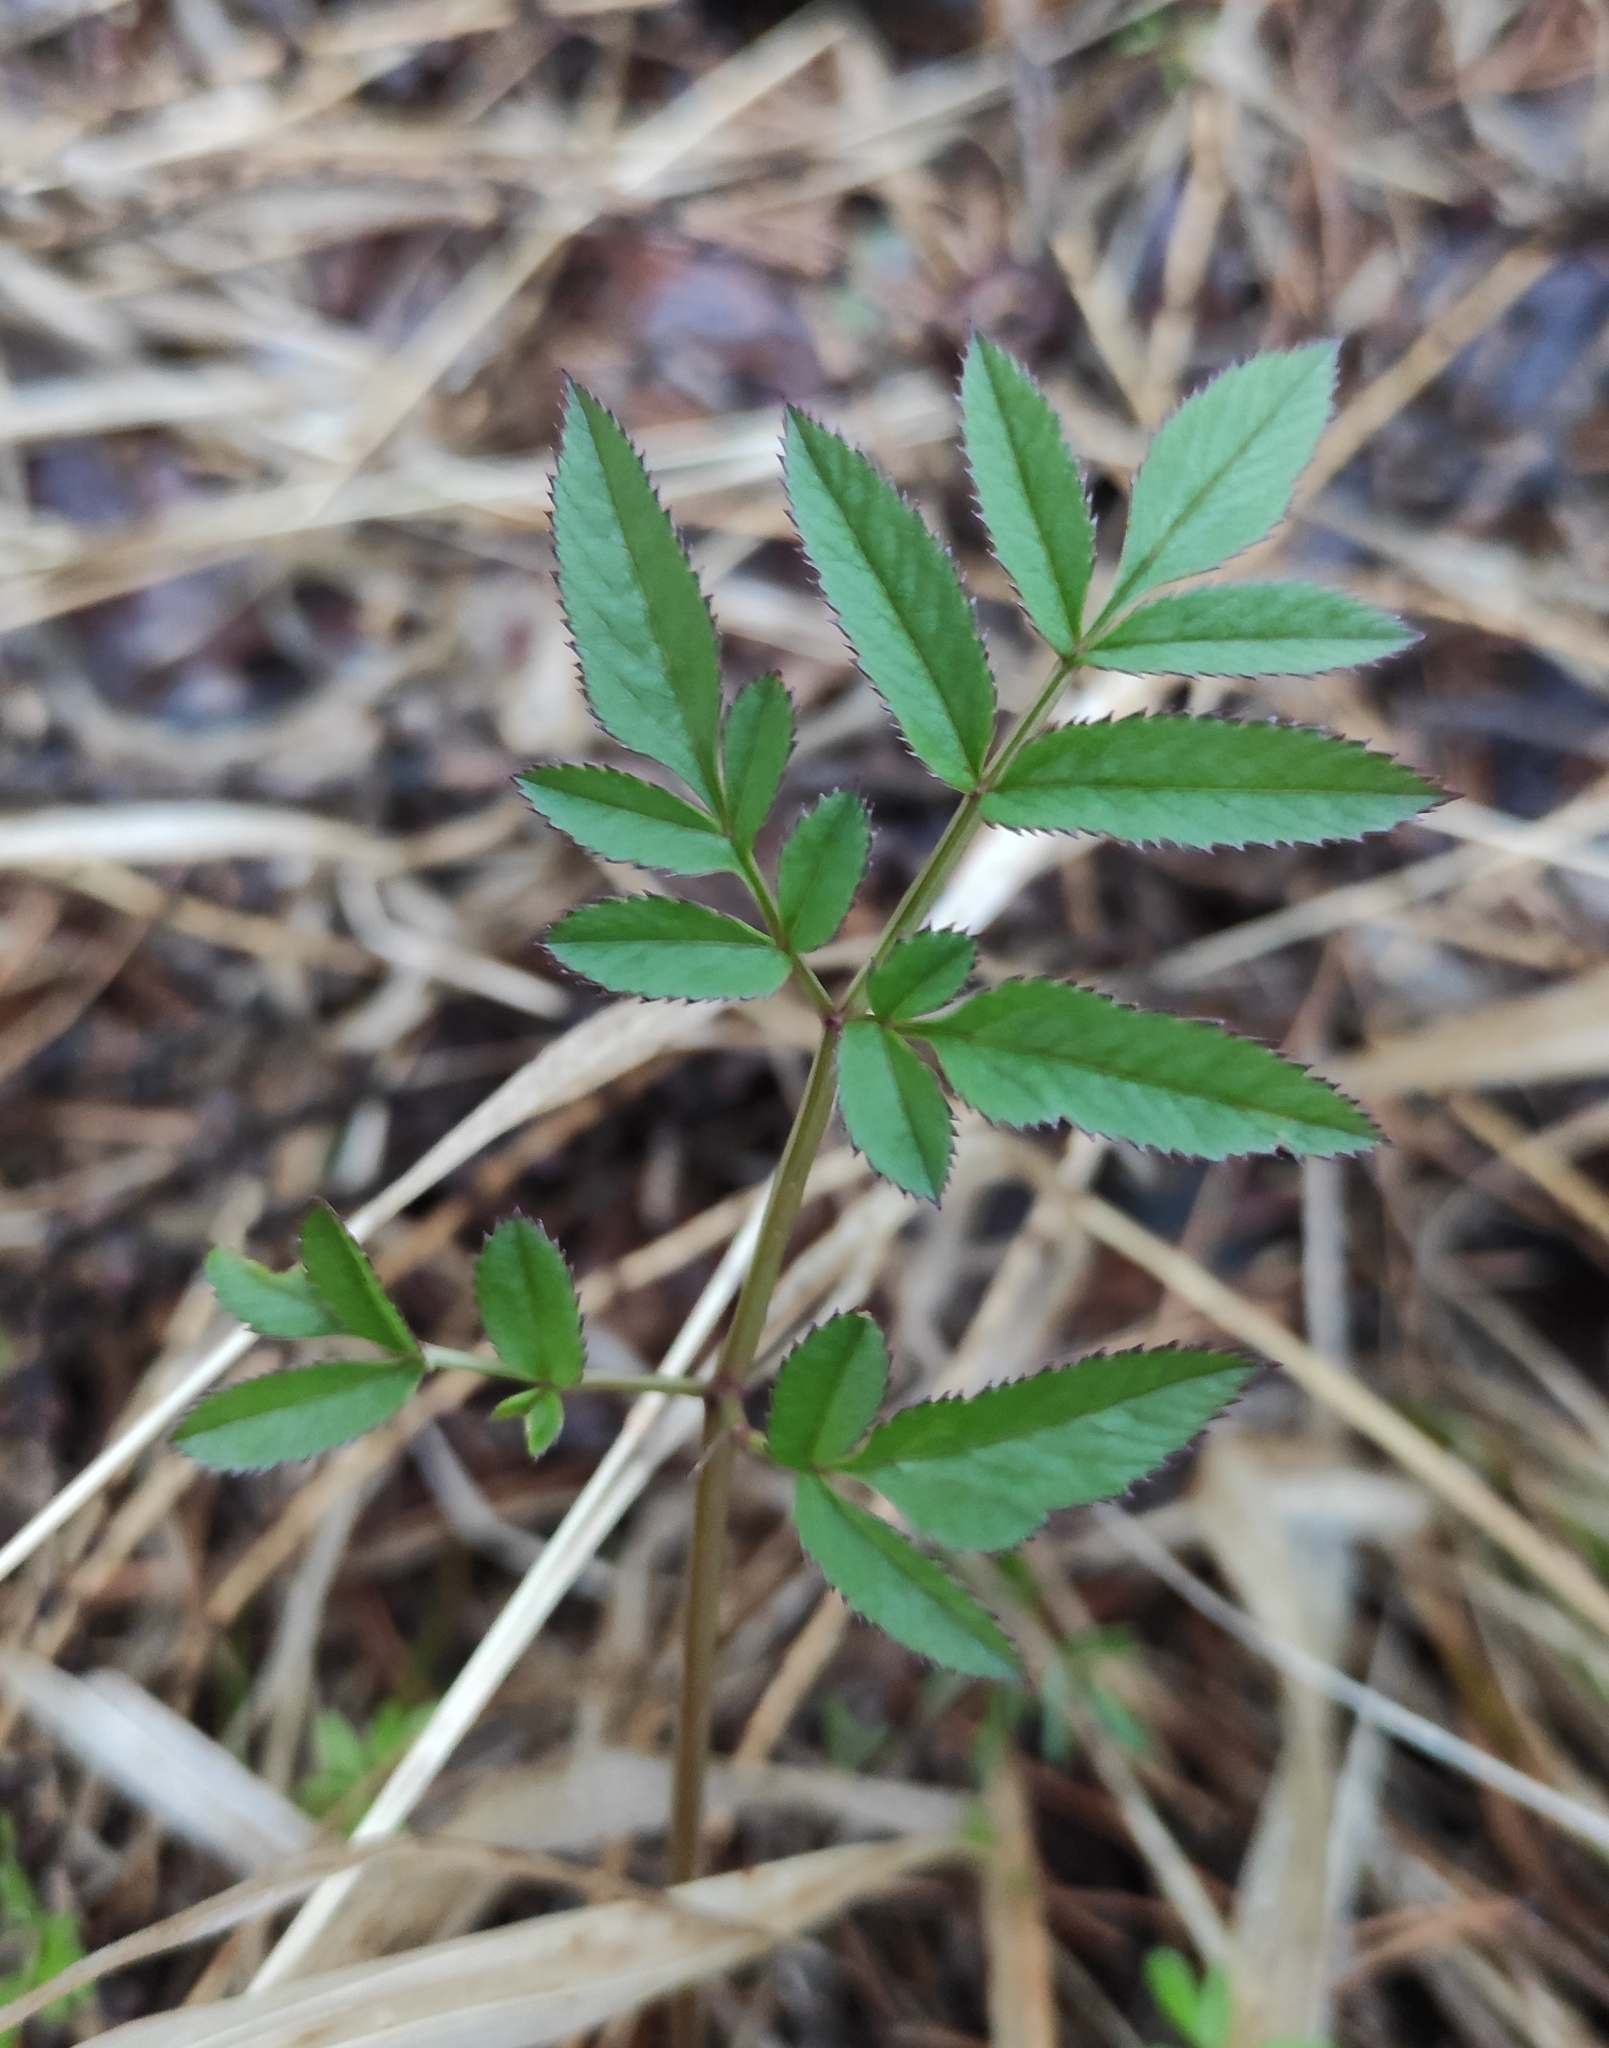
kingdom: Plantae
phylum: Tracheophyta
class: Magnoliopsida
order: Apiales
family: Apiaceae
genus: Angelica
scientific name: Angelica sylvestris
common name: Wild angelica
